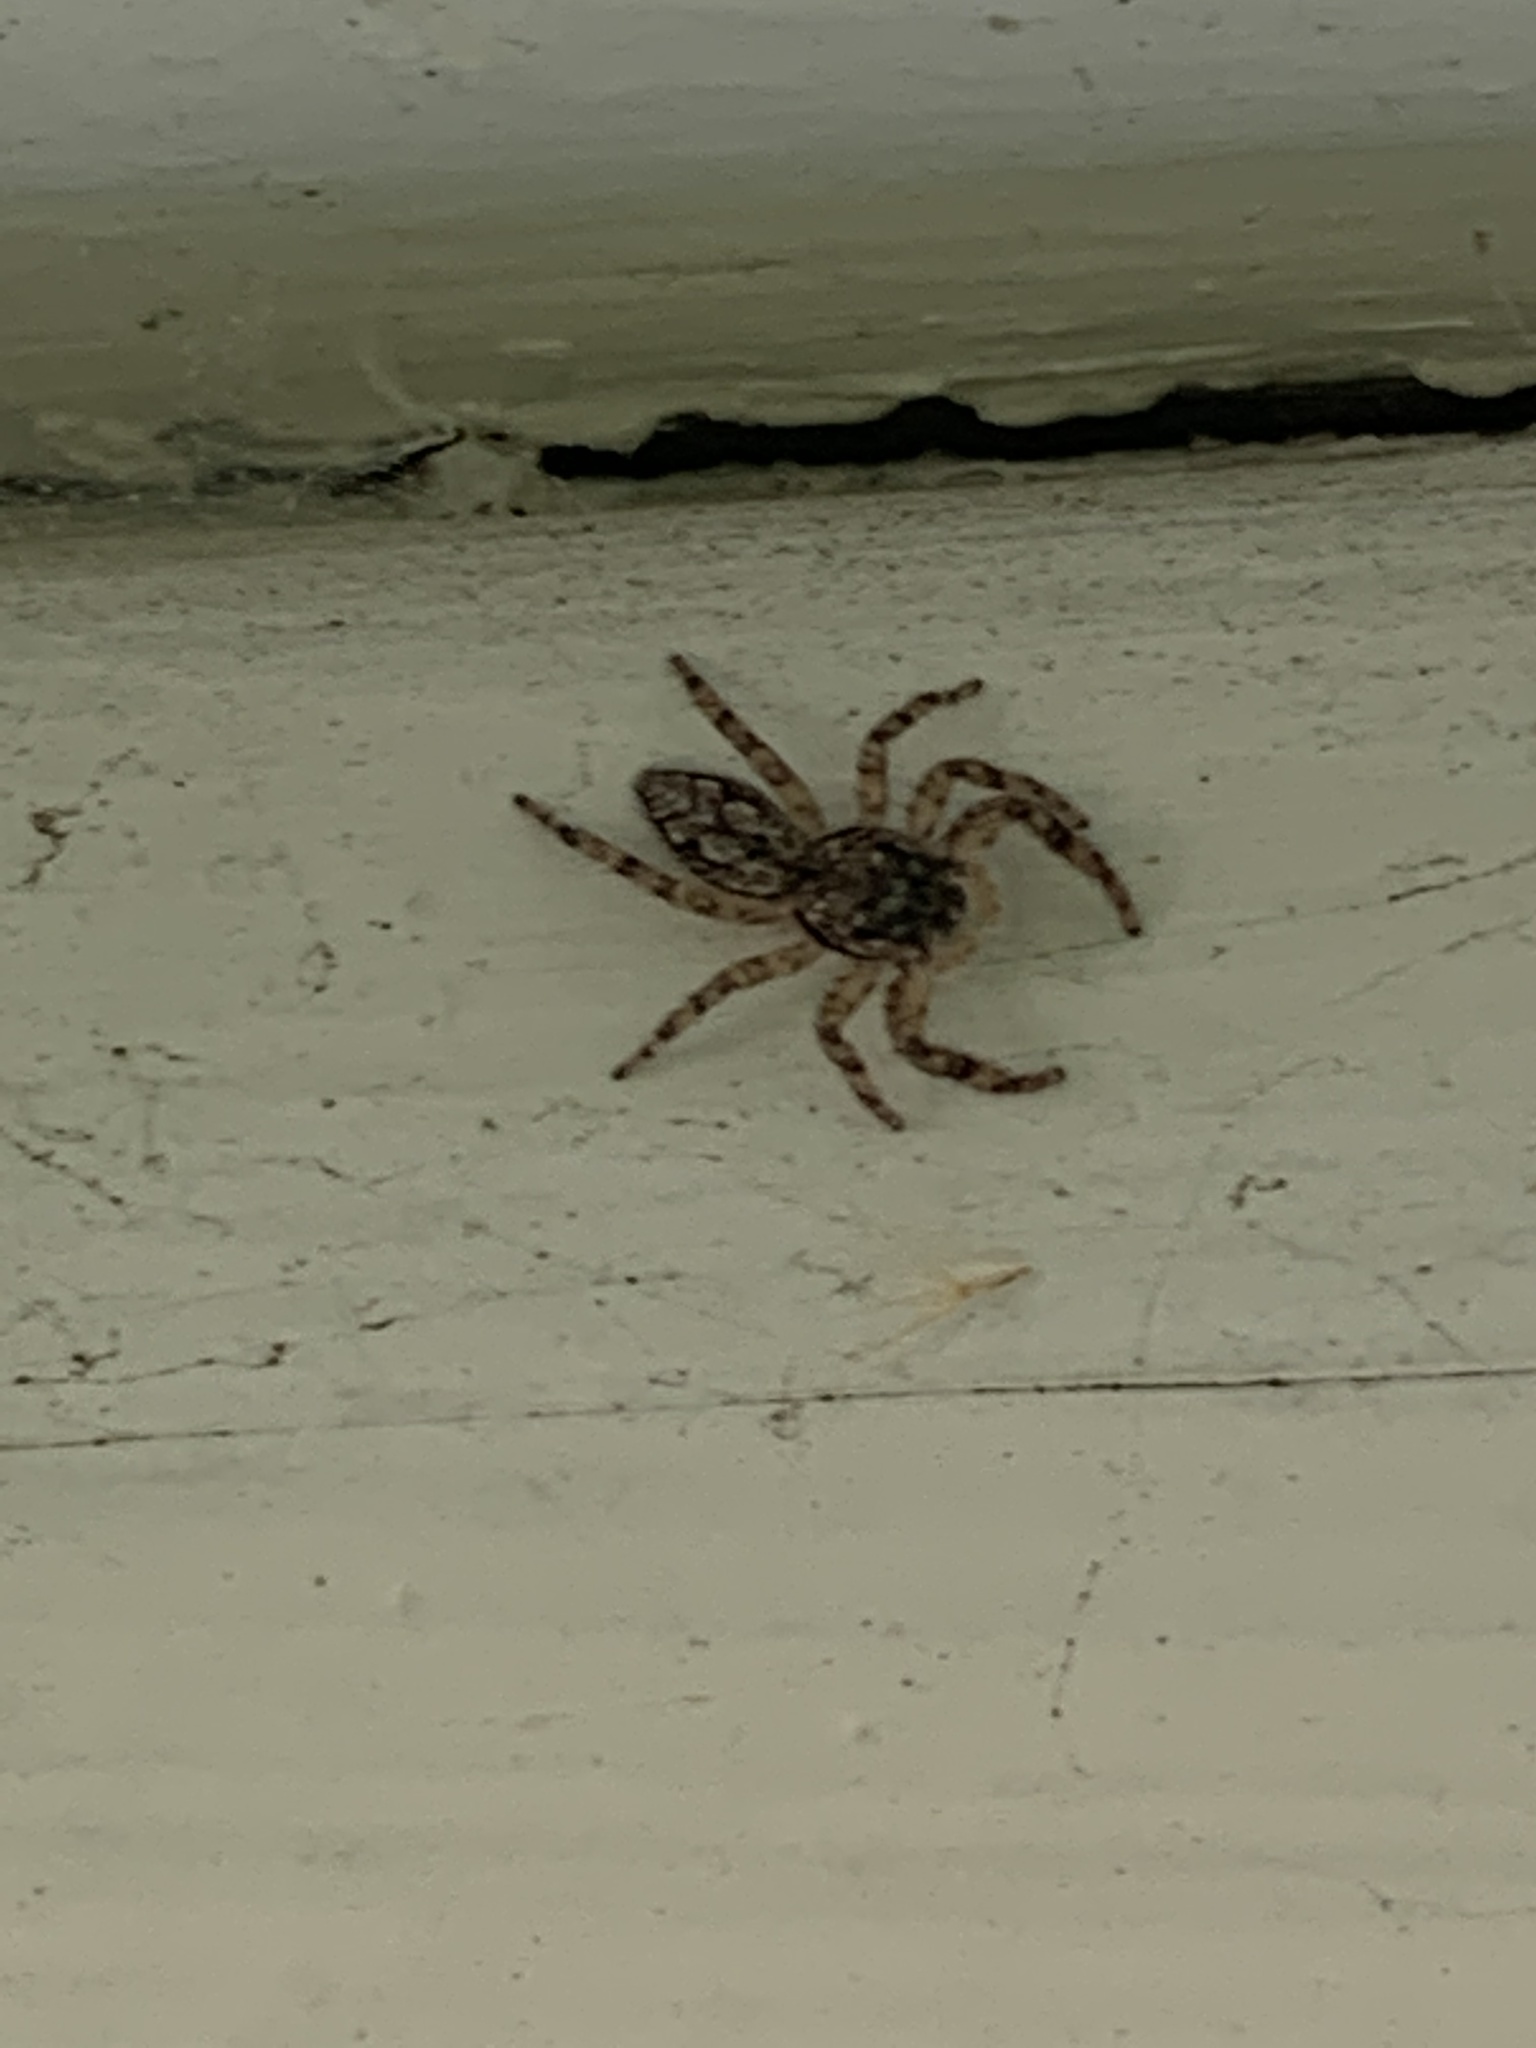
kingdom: Animalia
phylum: Arthropoda
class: Arachnida
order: Araneae
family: Salticidae
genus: Platycryptus
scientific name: Platycryptus undatus
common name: Tan jumping spider
